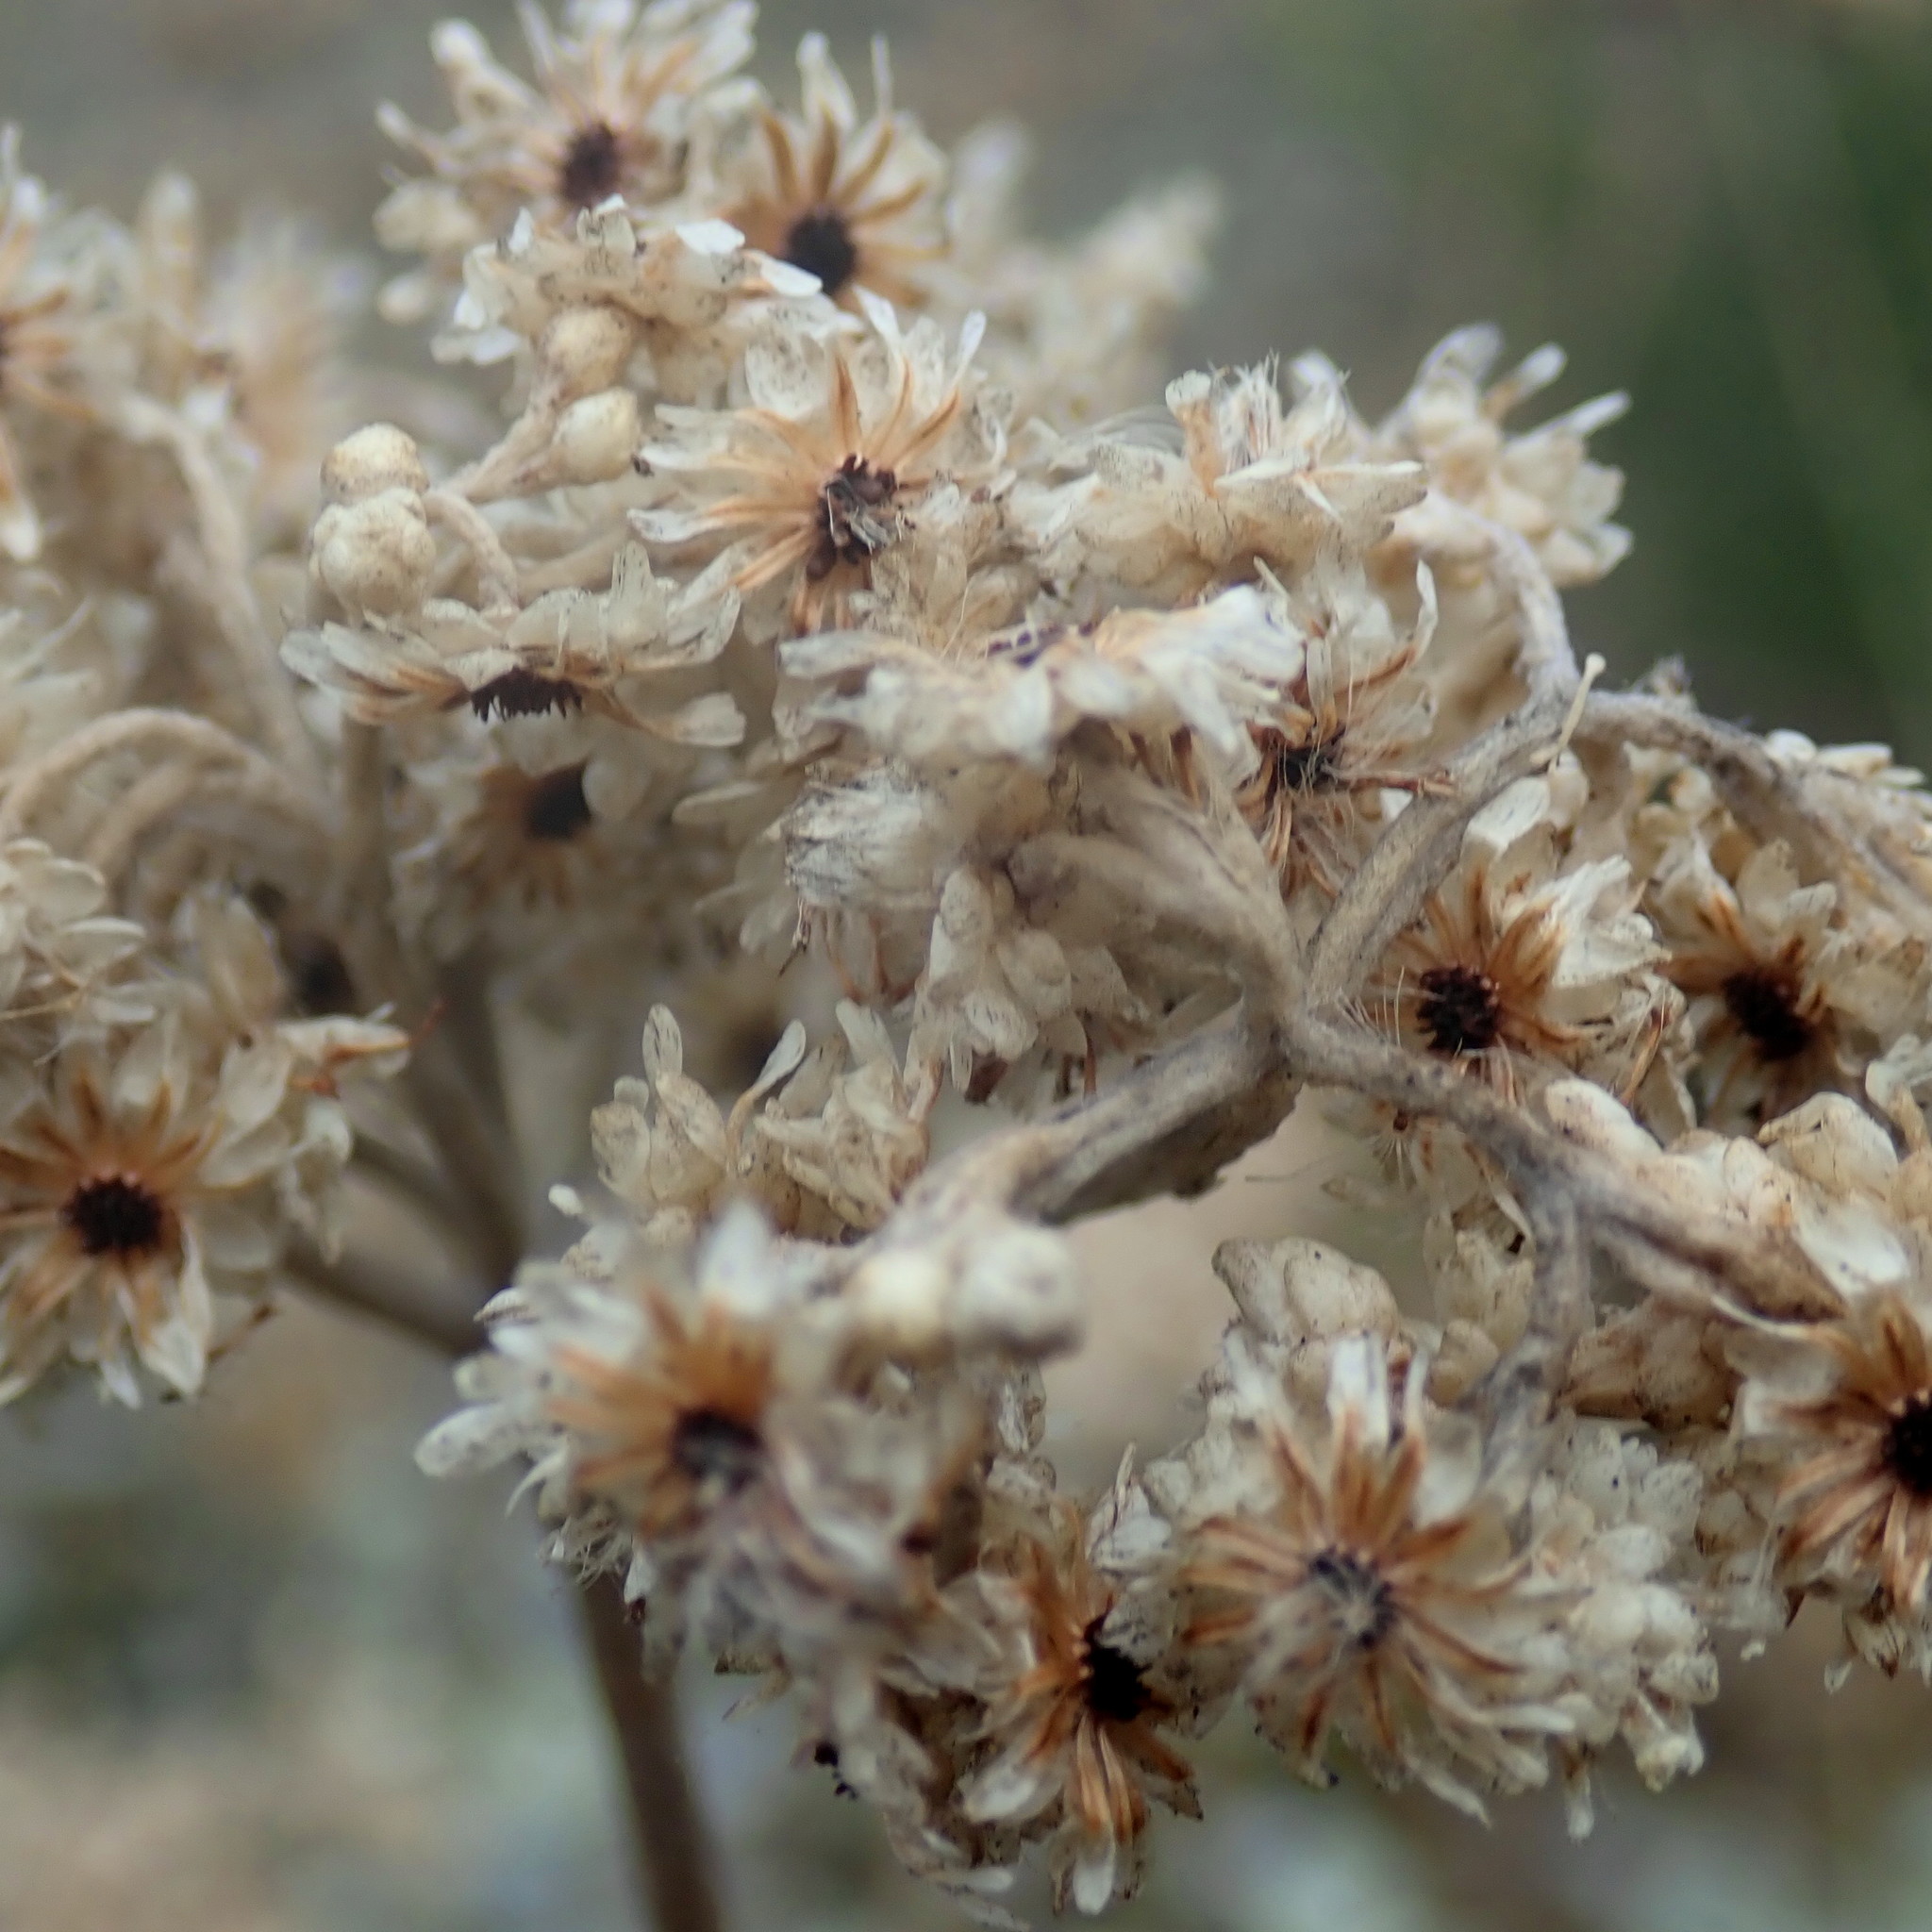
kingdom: Plantae
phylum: Tracheophyta
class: Magnoliopsida
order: Asterales
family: Asteraceae
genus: Helichrysum
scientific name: Helichrysum petiolare
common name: Licorice-plant
